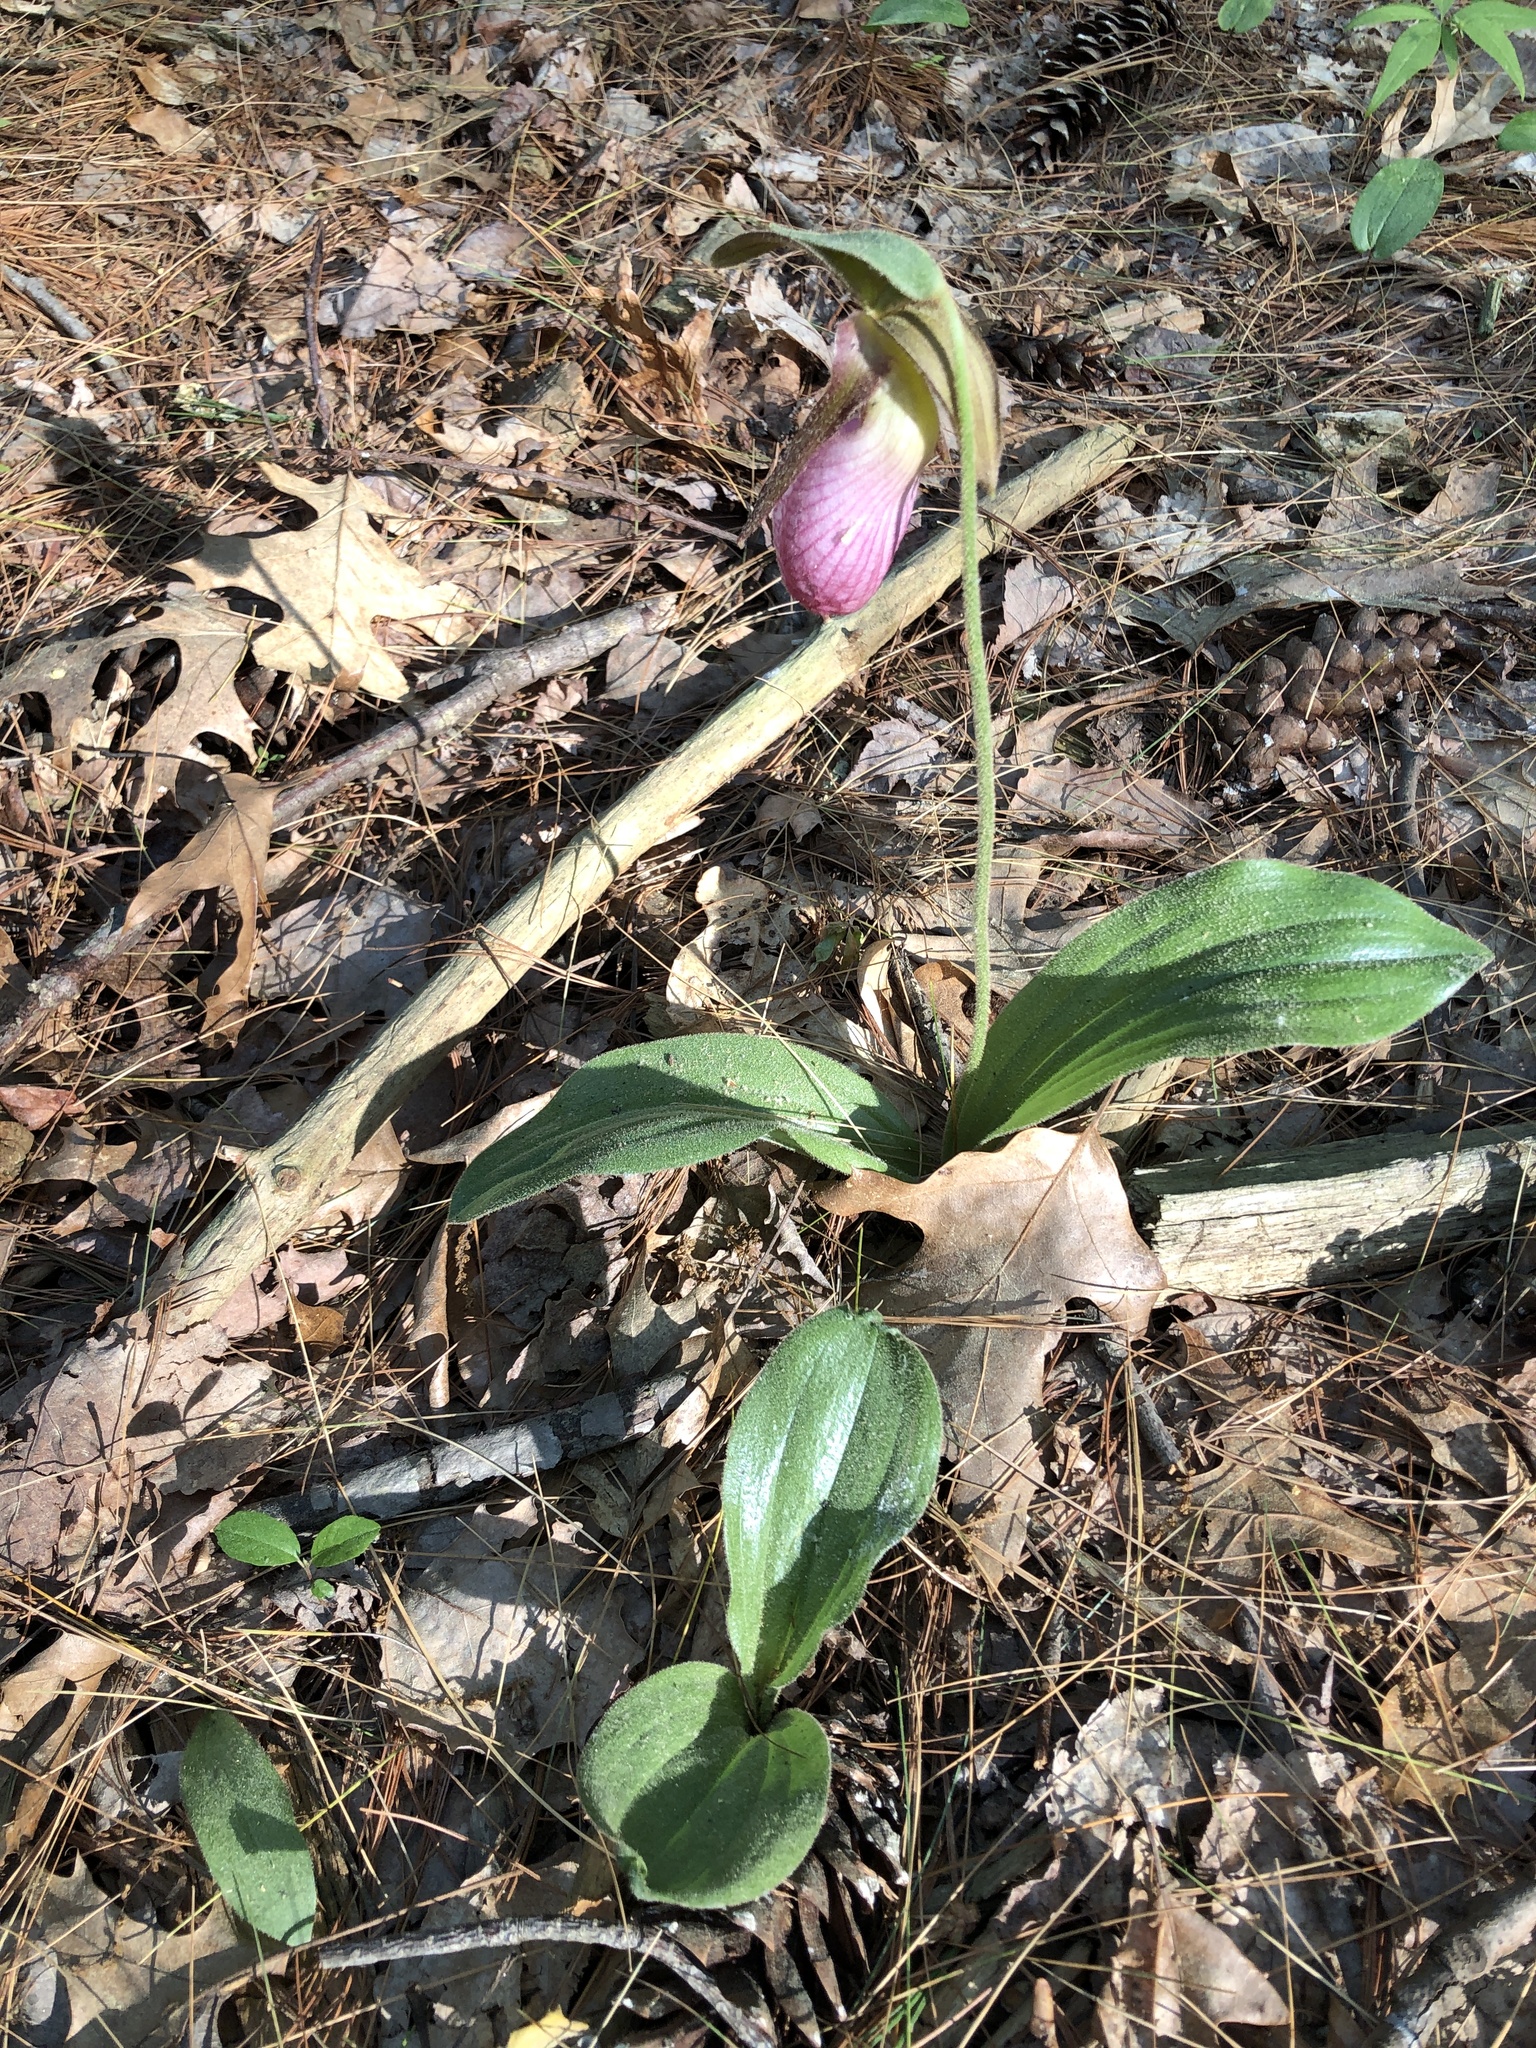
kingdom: Plantae
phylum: Tracheophyta
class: Liliopsida
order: Asparagales
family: Orchidaceae
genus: Cypripedium
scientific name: Cypripedium acaule
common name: Pink lady's-slipper
